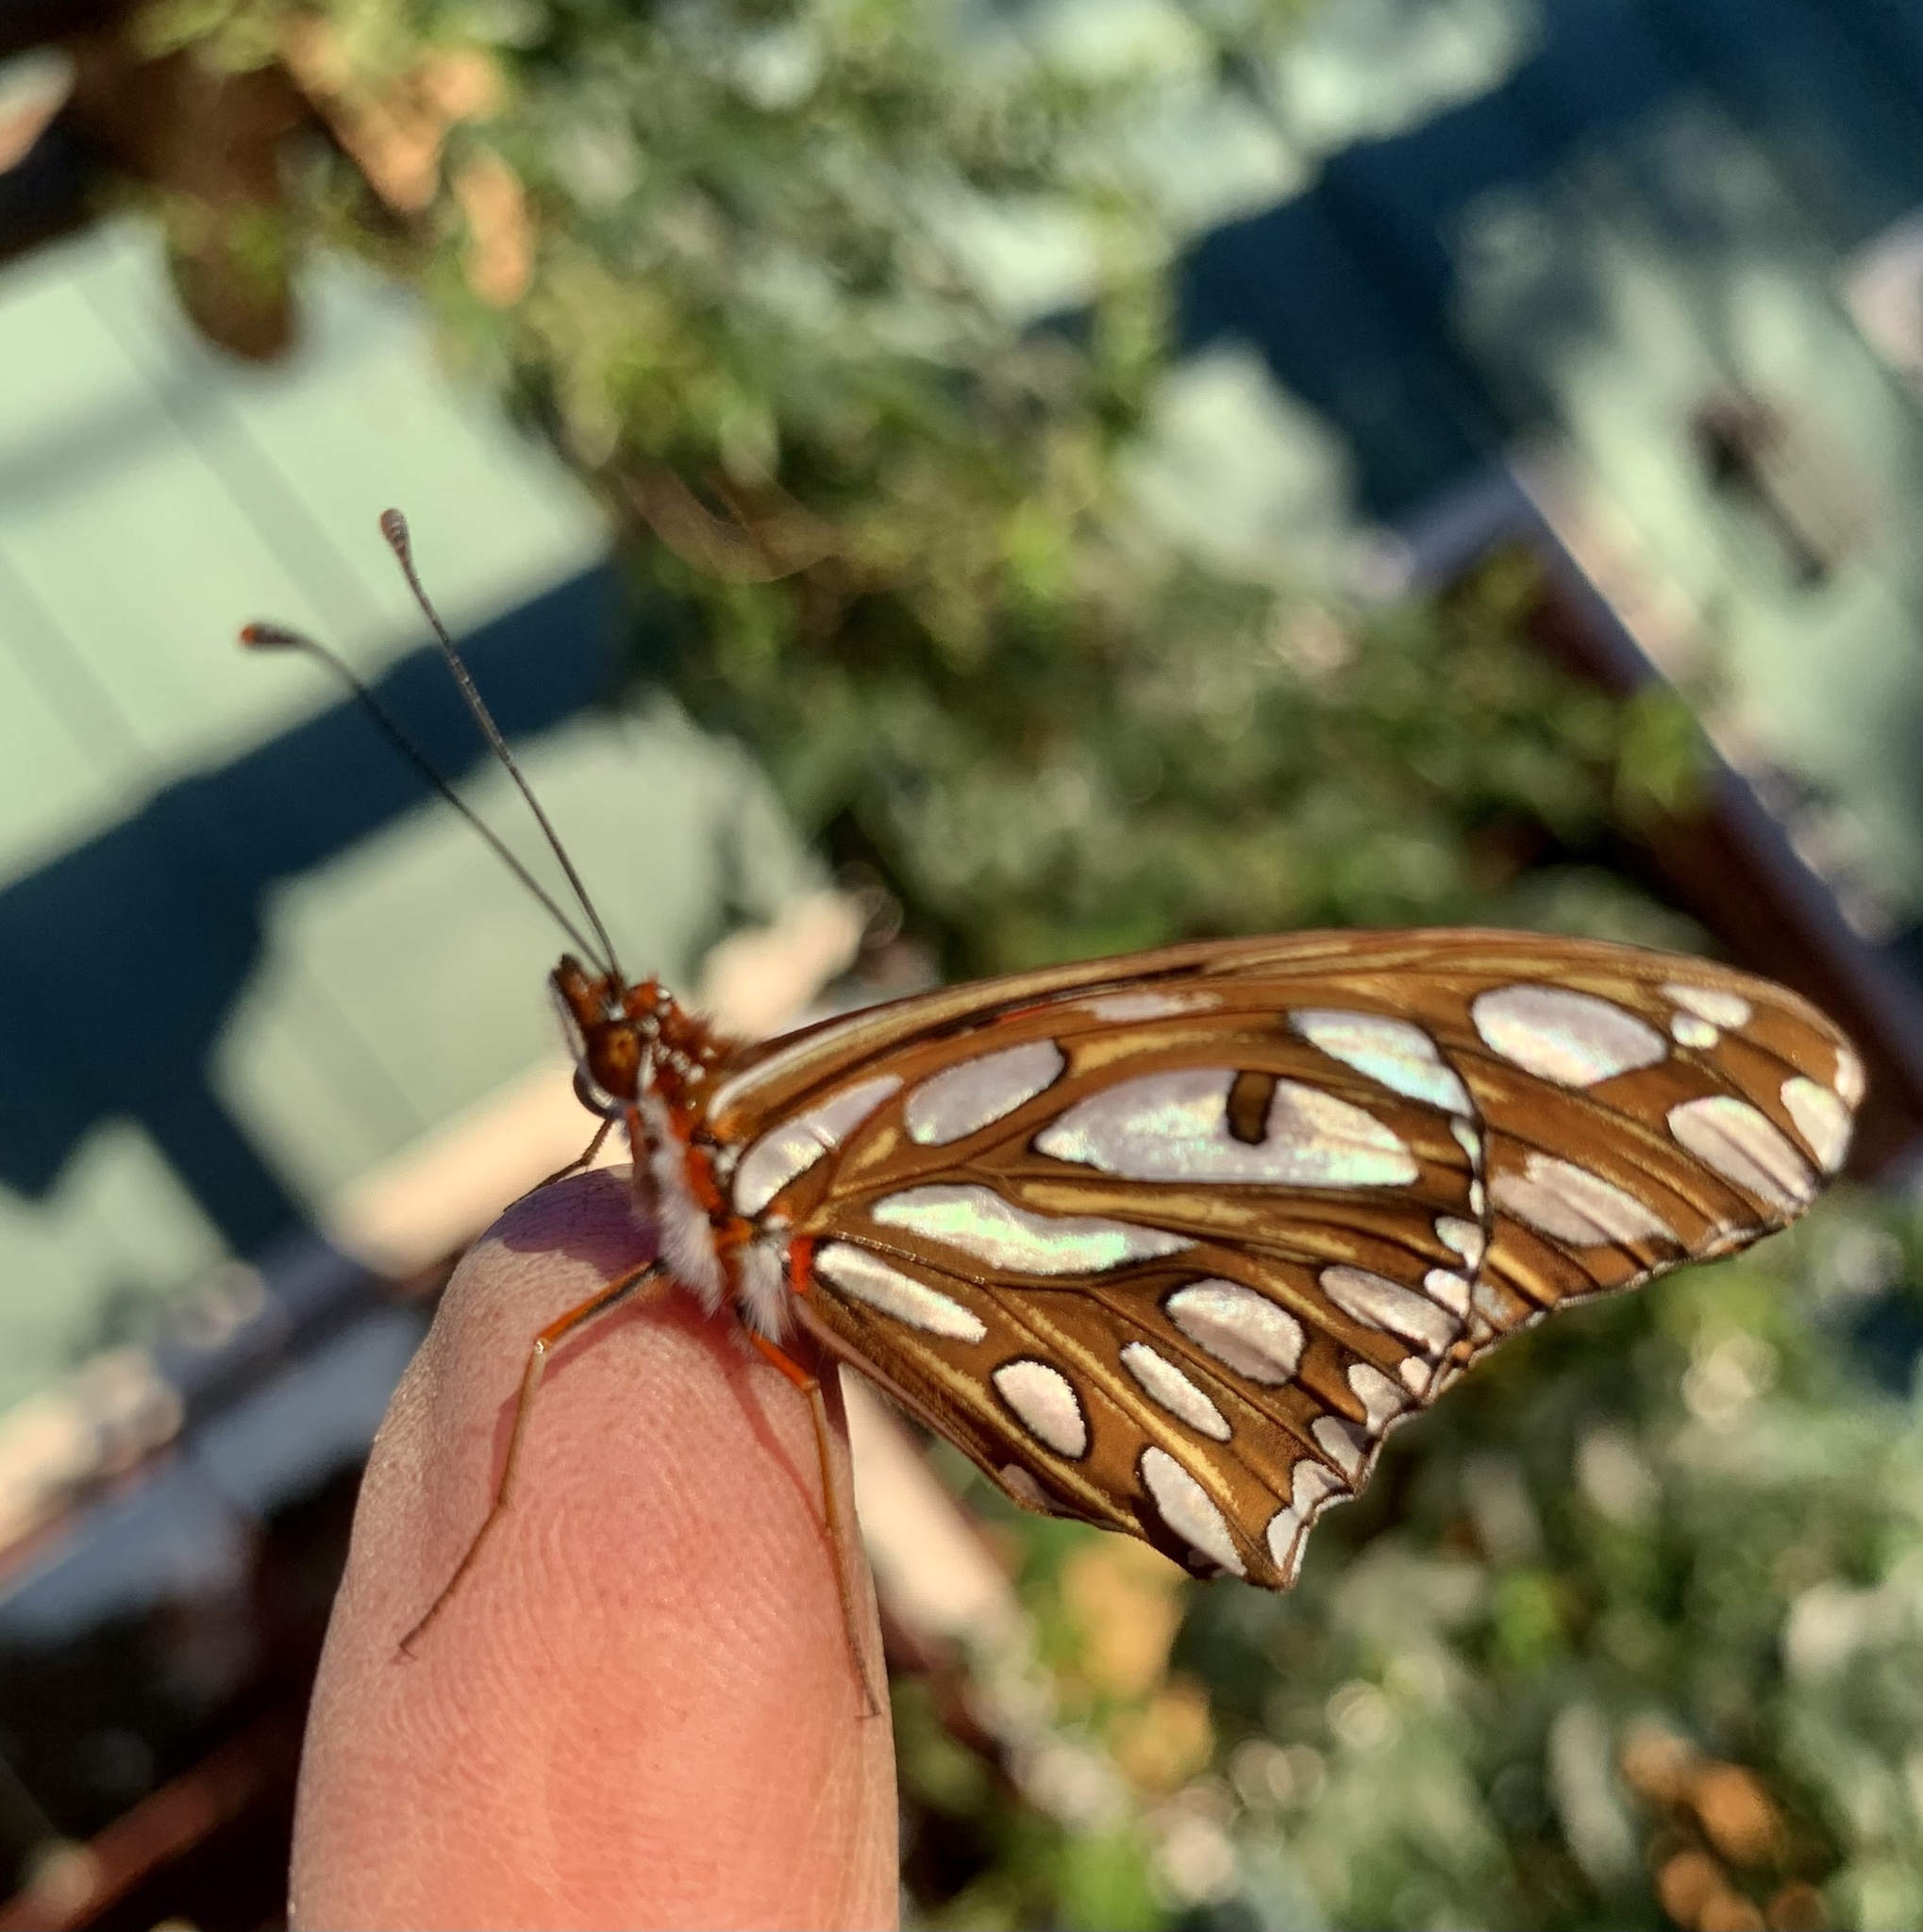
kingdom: Animalia
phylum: Arthropoda
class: Insecta
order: Lepidoptera
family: Nymphalidae
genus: Dione
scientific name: Dione vanillae
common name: Gulf fritillary
